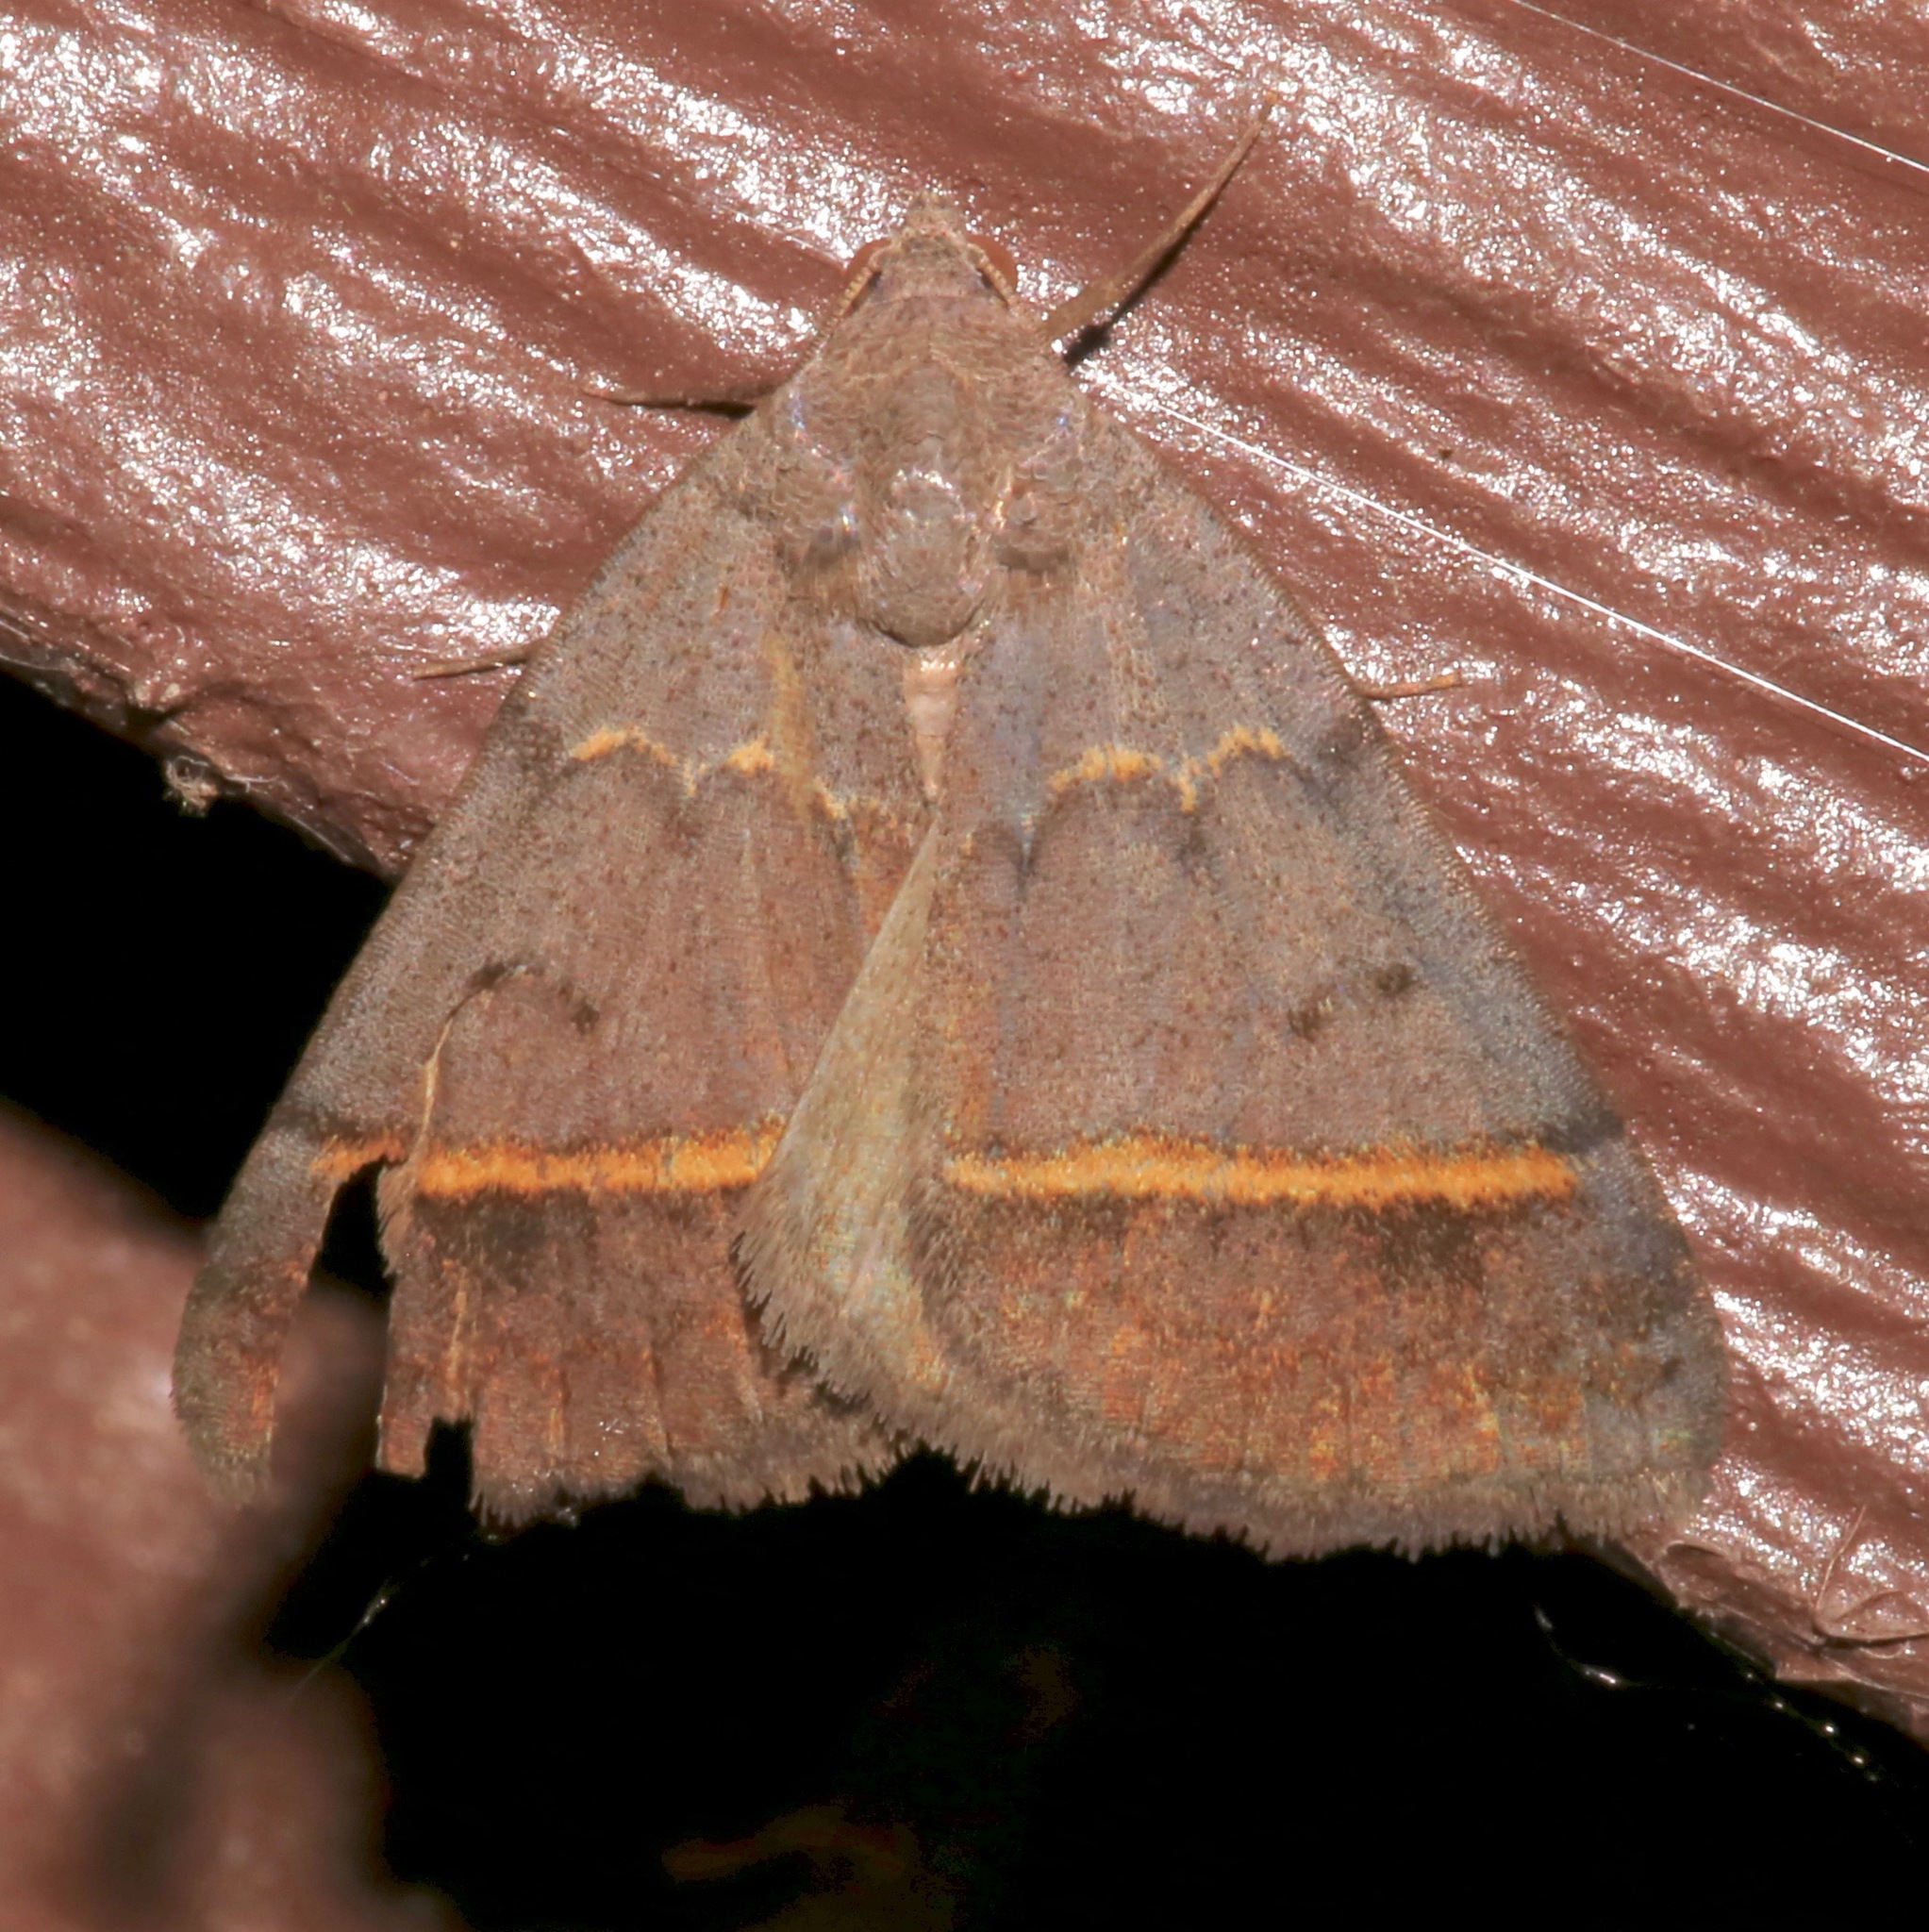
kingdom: Animalia
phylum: Arthropoda
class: Insecta
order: Lepidoptera
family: Erebidae
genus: Ptichodis
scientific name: Ptichodis bucetum
